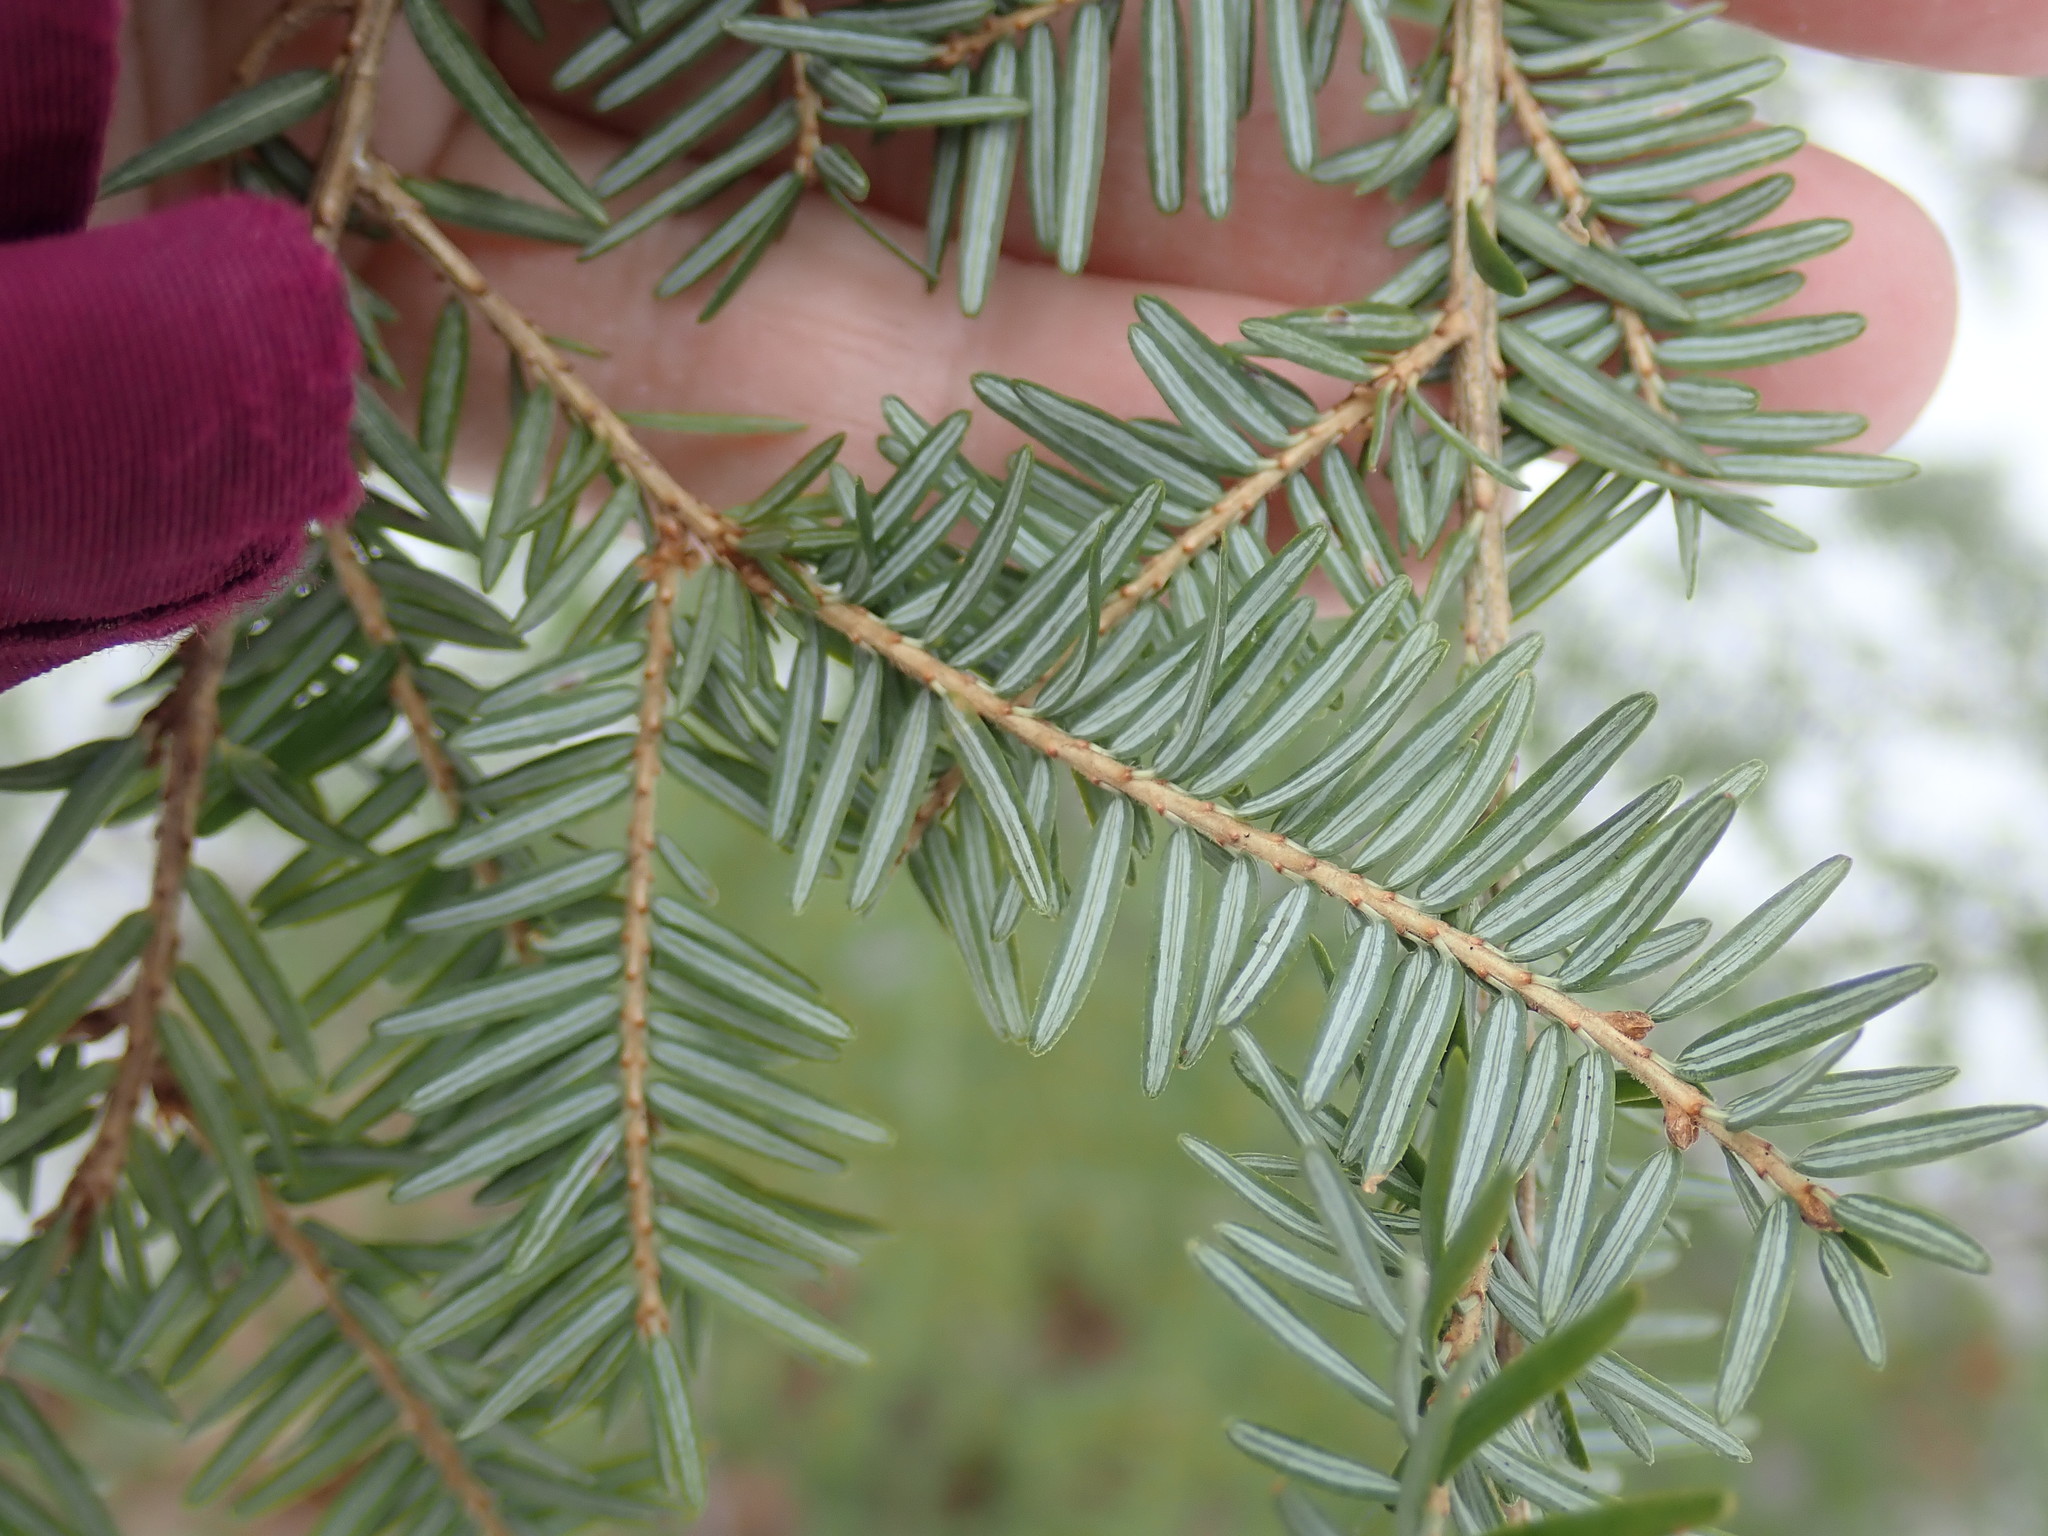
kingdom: Plantae
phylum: Tracheophyta
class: Pinopsida
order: Pinales
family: Pinaceae
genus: Tsuga
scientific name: Tsuga canadensis
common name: Eastern hemlock
